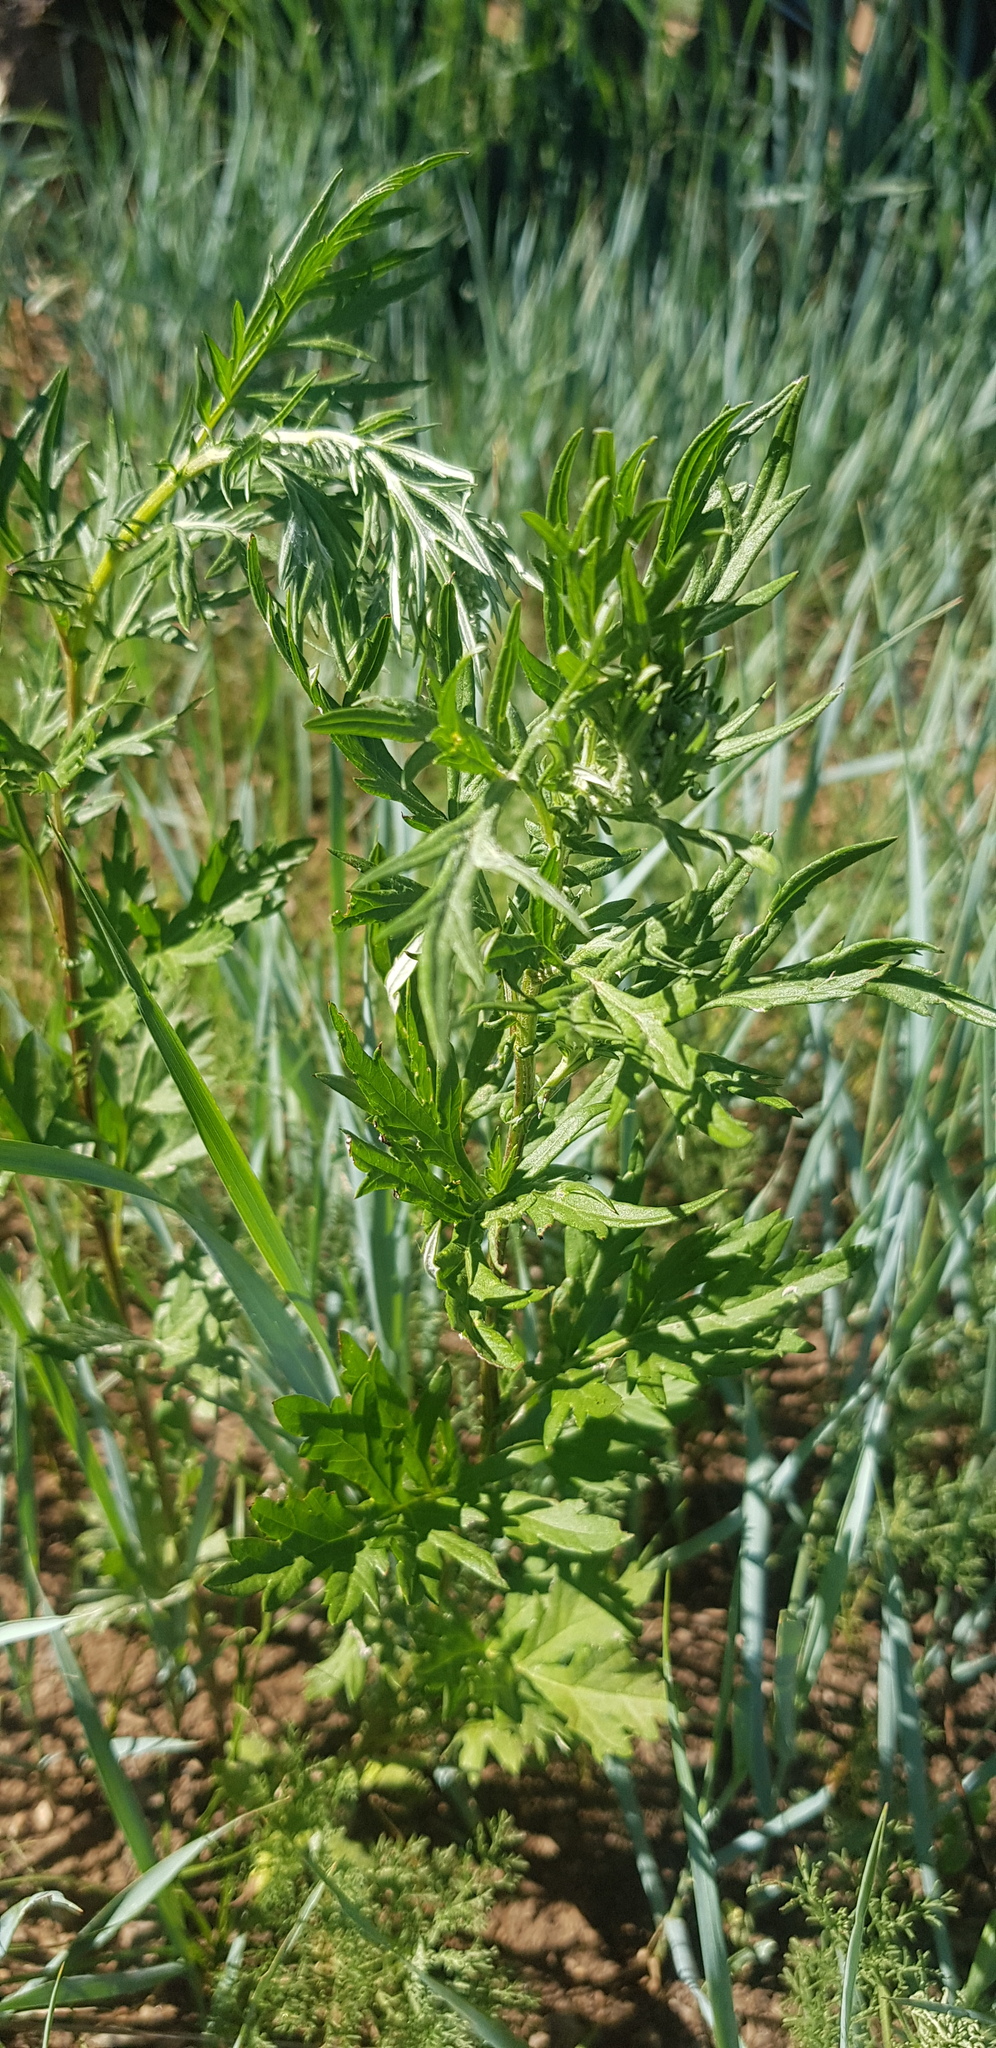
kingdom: Plantae
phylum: Tracheophyta
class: Magnoliopsida
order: Asterales
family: Asteraceae
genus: Artemisia
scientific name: Artemisia vulgaris
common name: Mugwort
